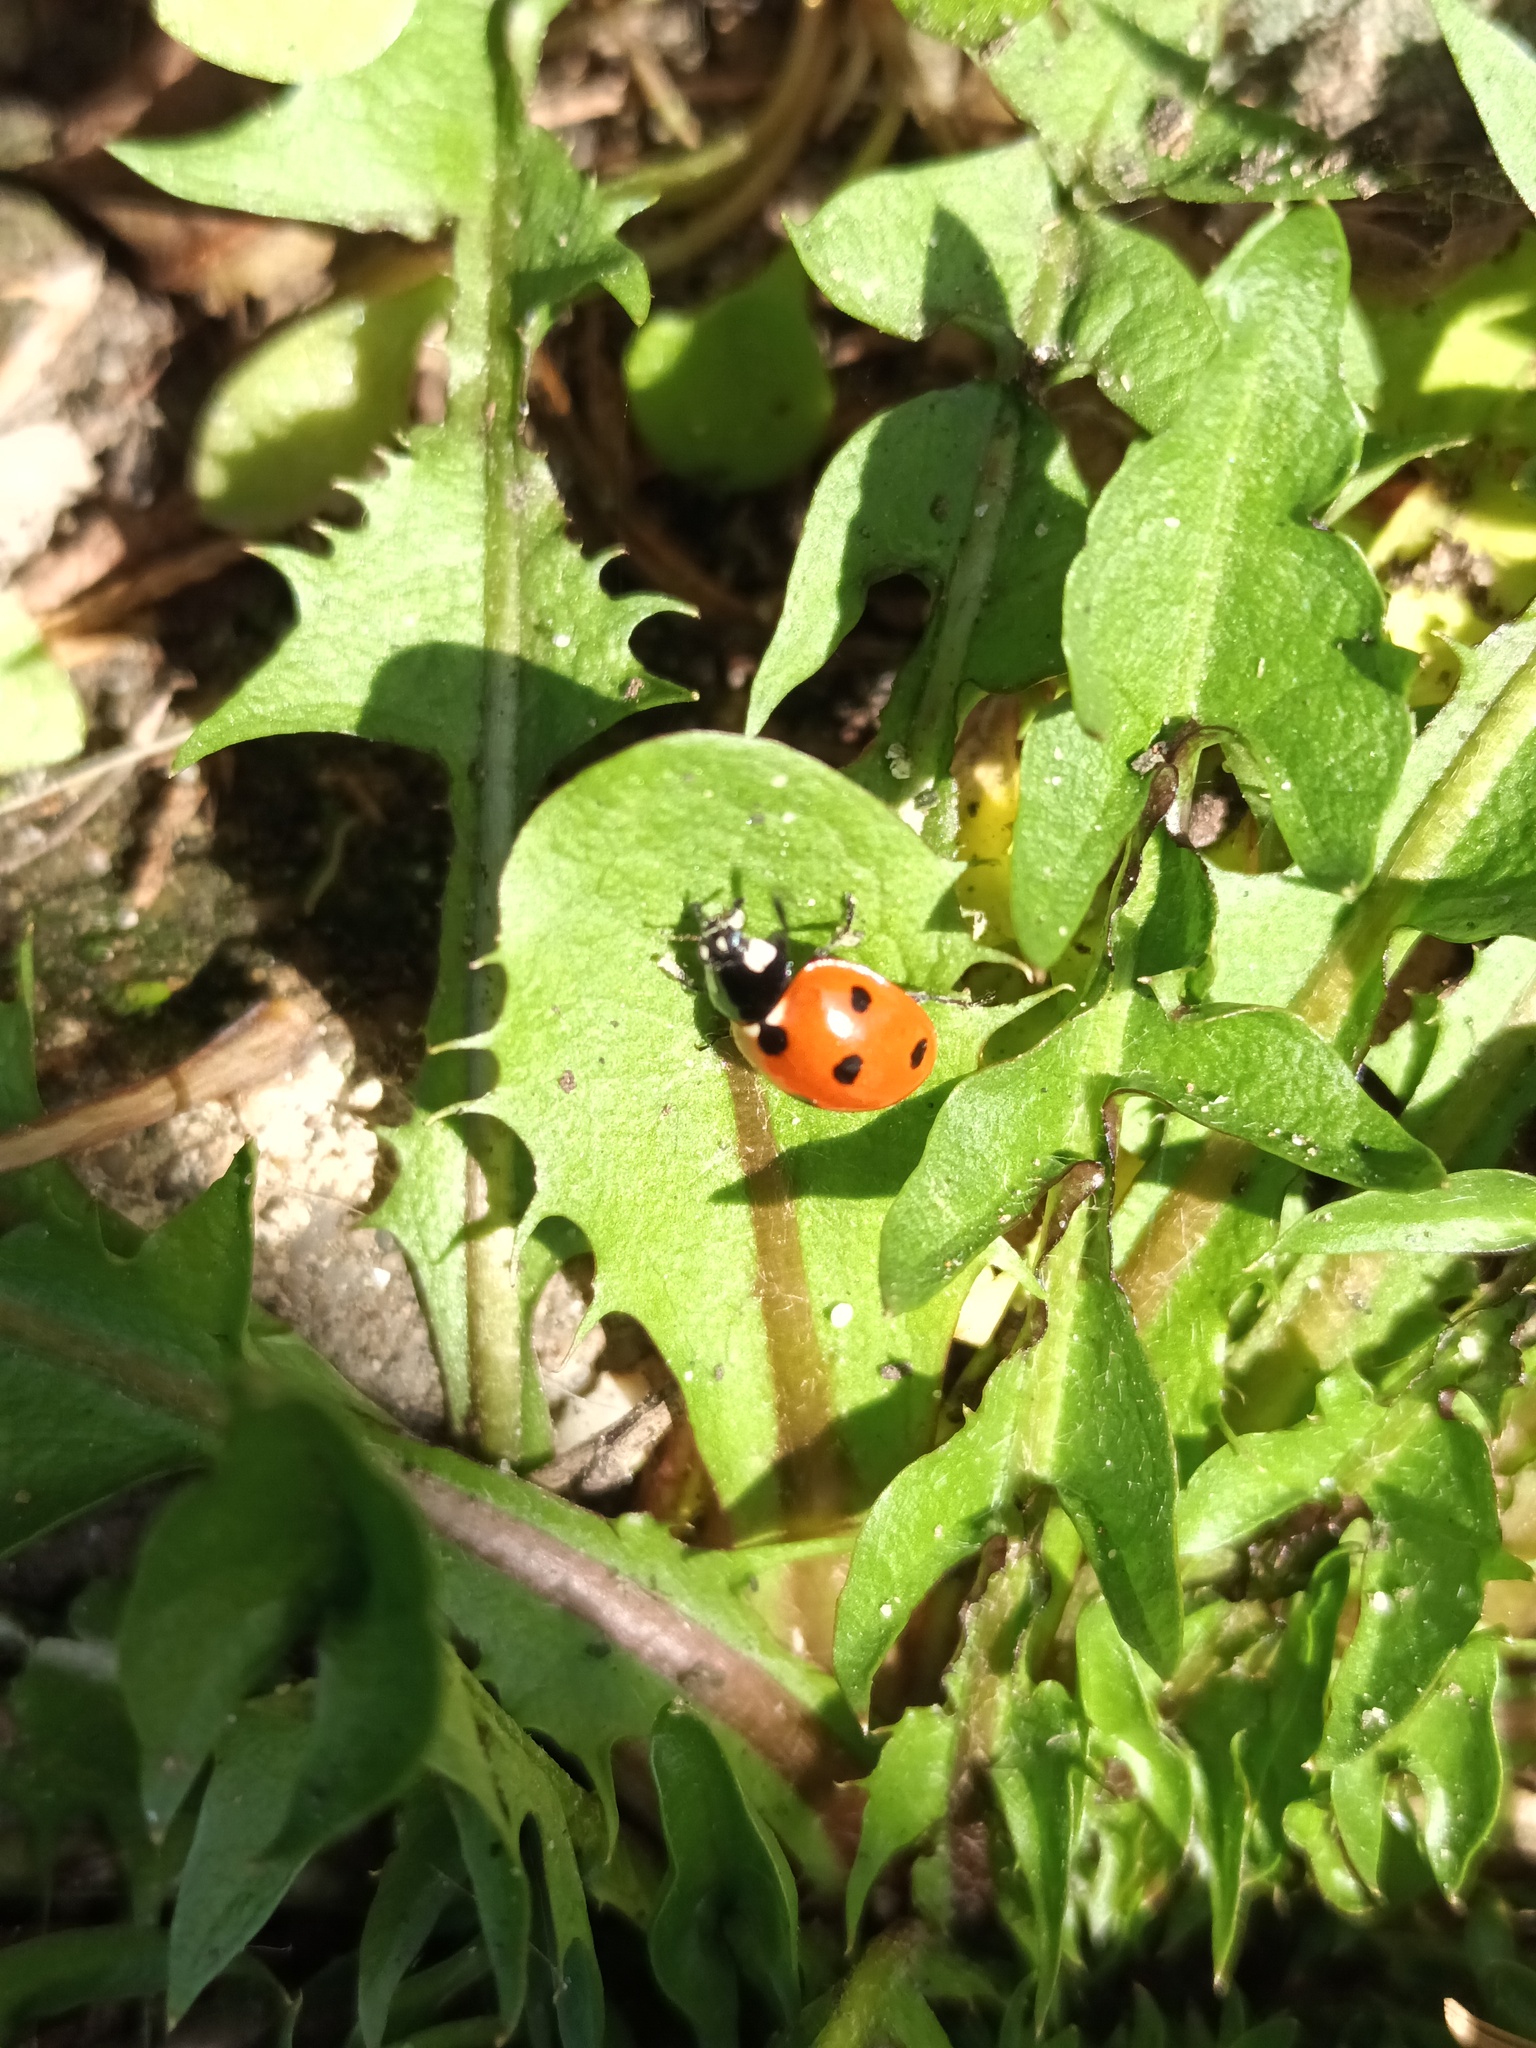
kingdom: Animalia
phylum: Arthropoda
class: Insecta
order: Coleoptera
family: Coccinellidae
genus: Coccinella
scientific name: Coccinella septempunctata
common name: Sevenspotted lady beetle
